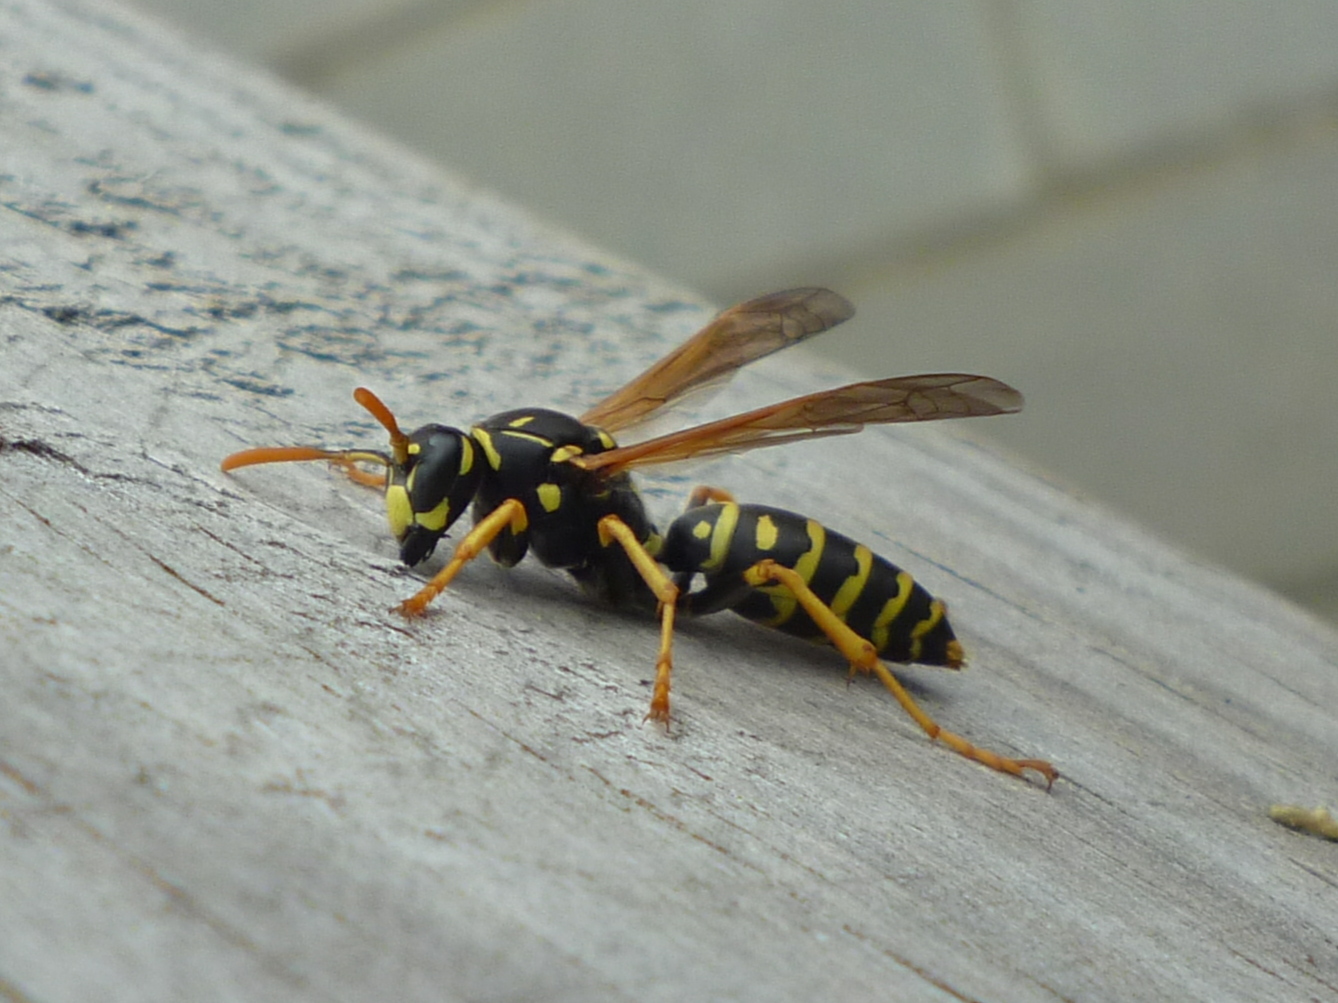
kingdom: Animalia
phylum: Arthropoda
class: Insecta
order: Hymenoptera
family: Eumenidae
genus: Polistes
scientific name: Polistes dominula
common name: Paper wasp
